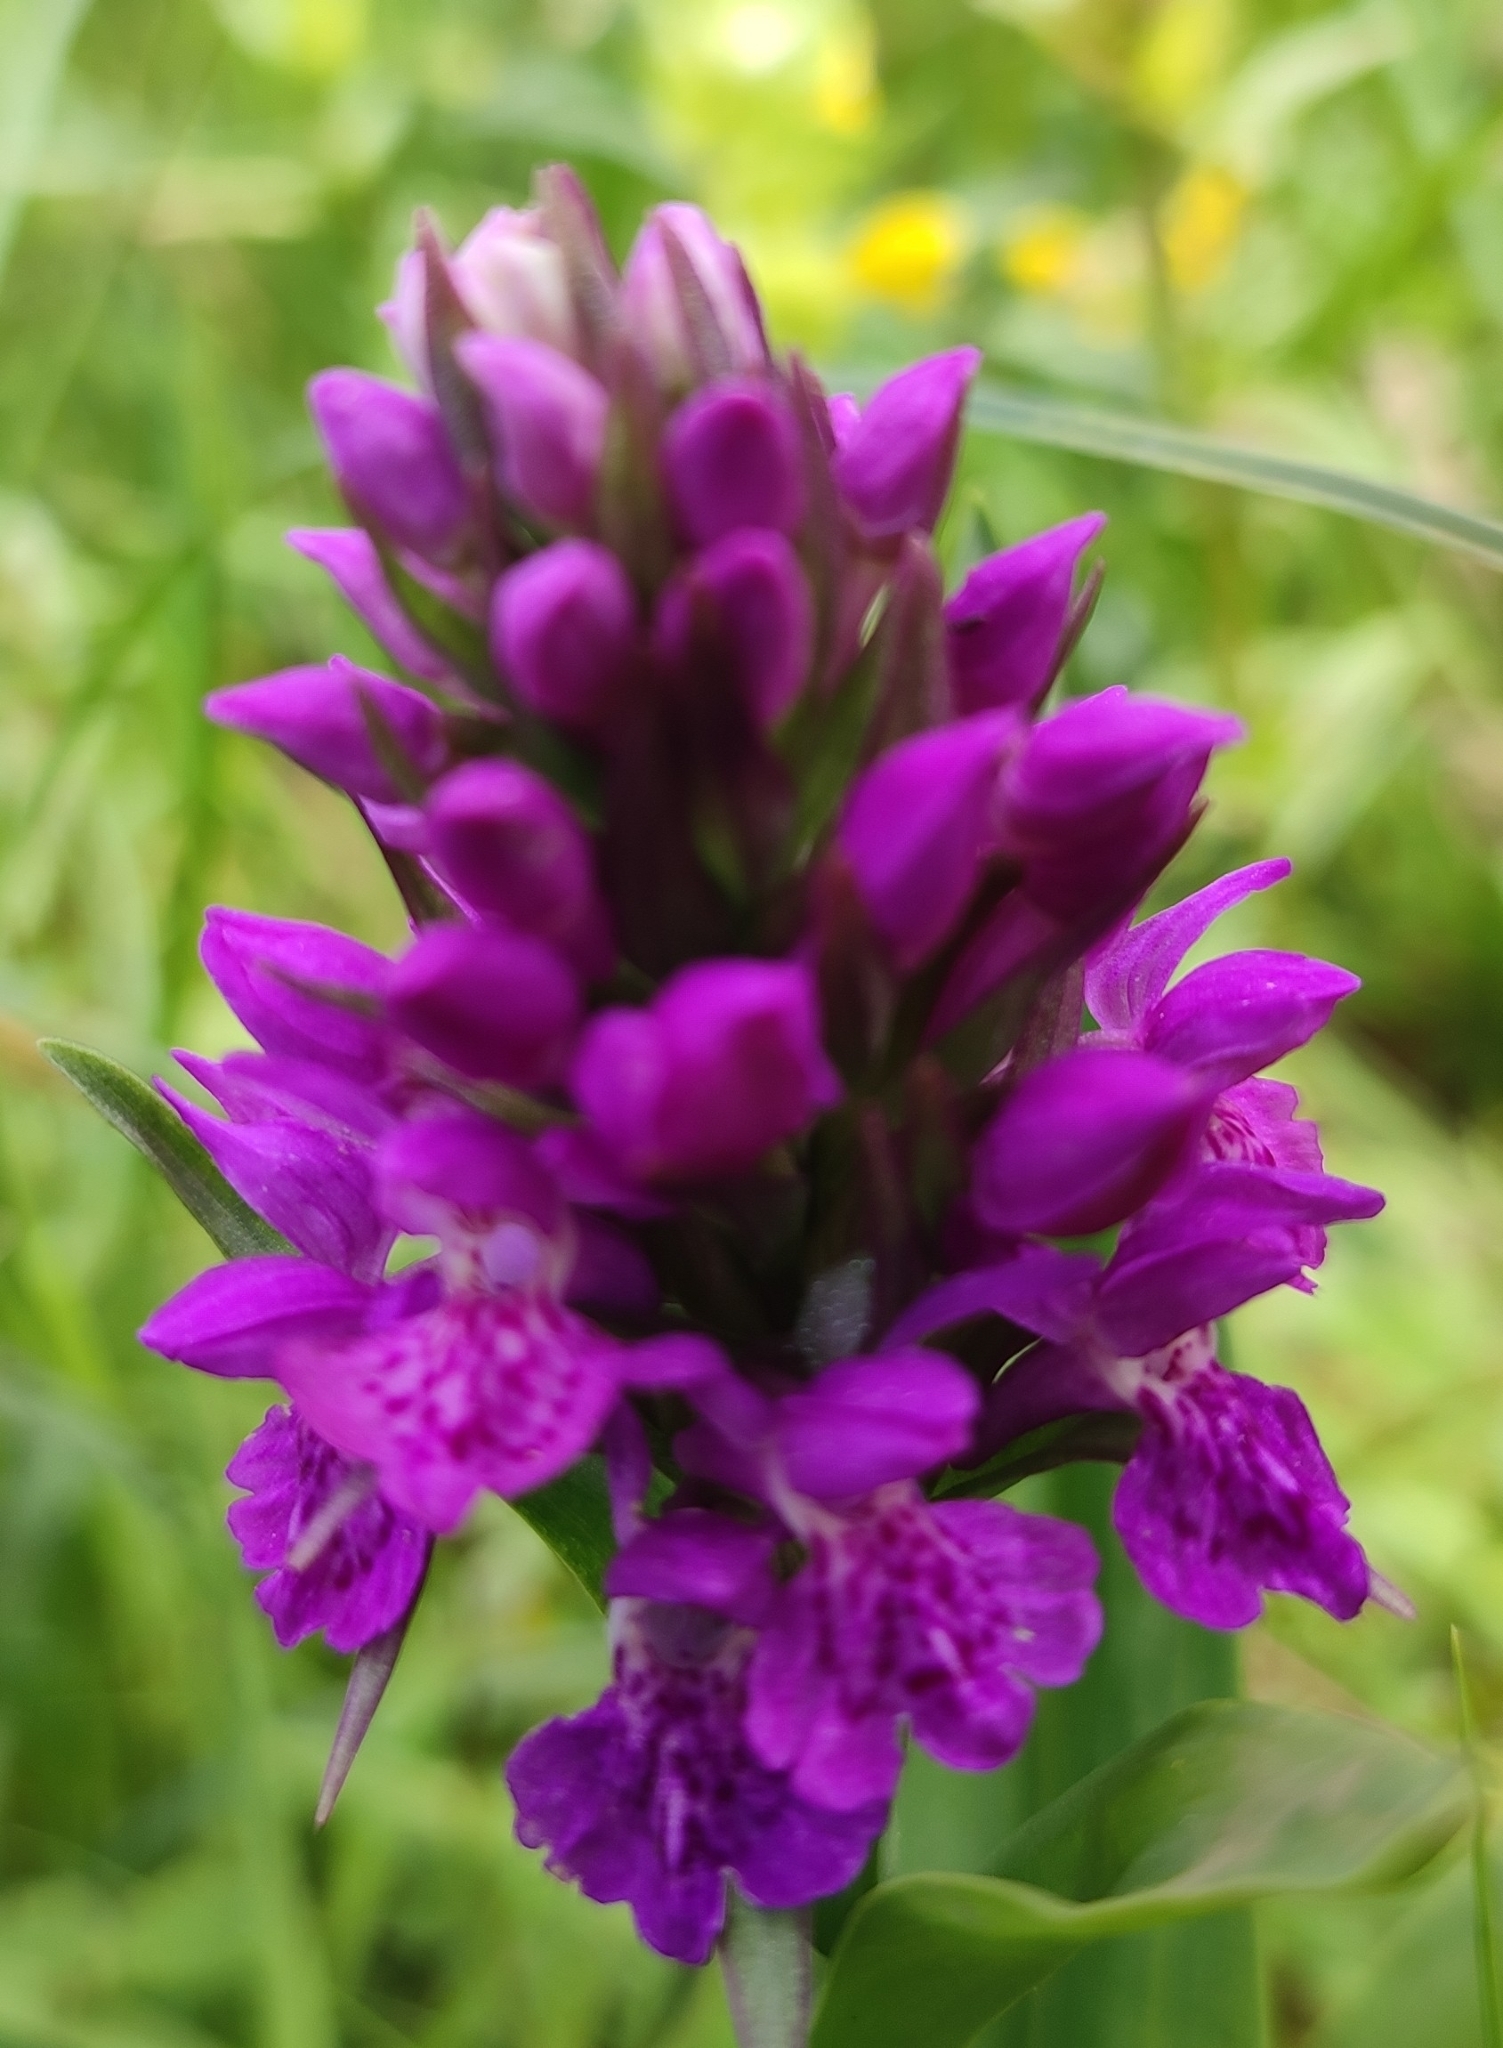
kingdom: Plantae
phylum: Tracheophyta
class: Liliopsida
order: Asparagales
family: Orchidaceae
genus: Dactylorhiza
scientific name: Dactylorhiza majalis
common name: Marsh orchid
